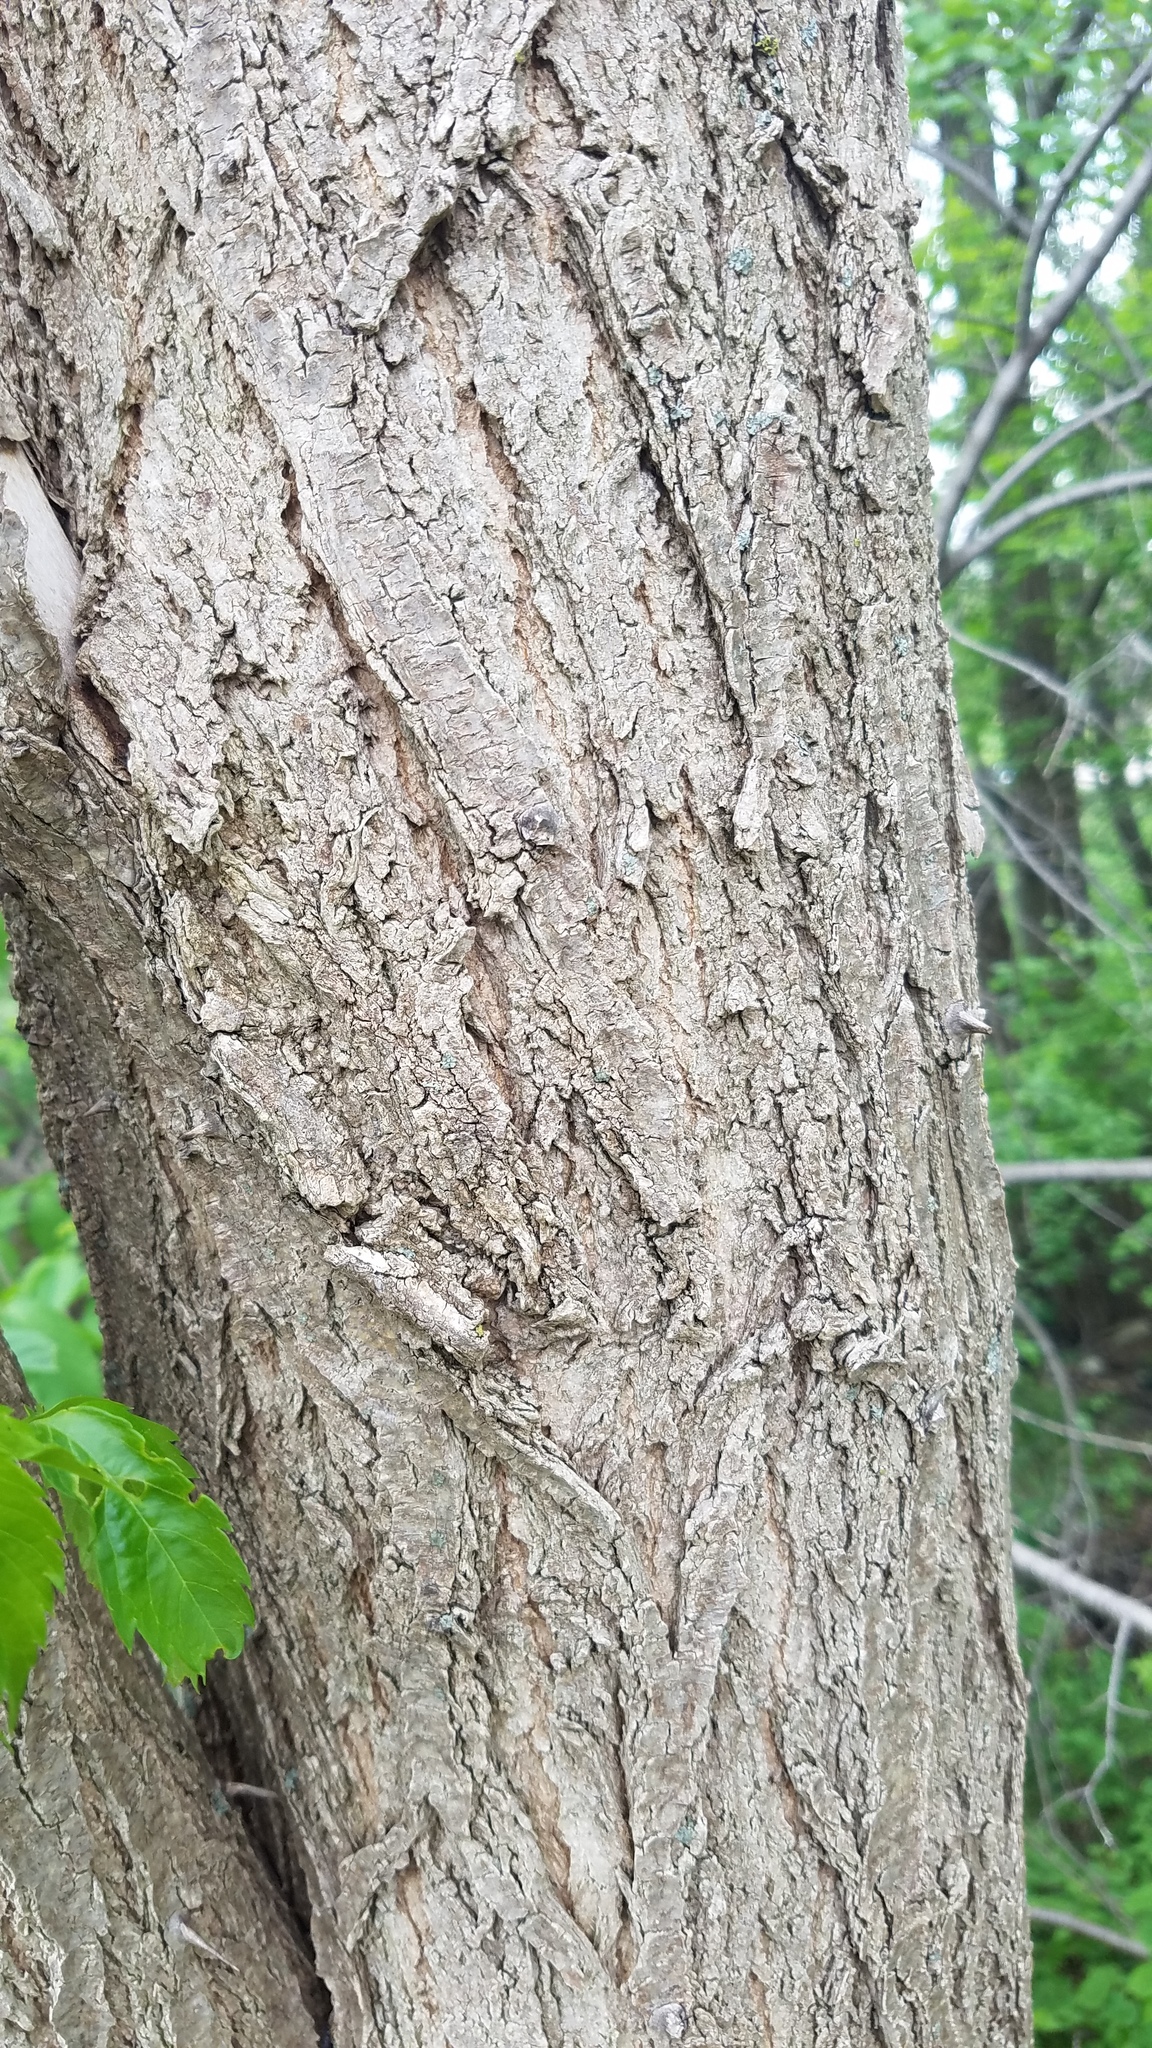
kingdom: Plantae
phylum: Tracheophyta
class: Magnoliopsida
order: Fabales
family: Fabaceae
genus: Robinia
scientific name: Robinia pseudoacacia
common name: Black locust
